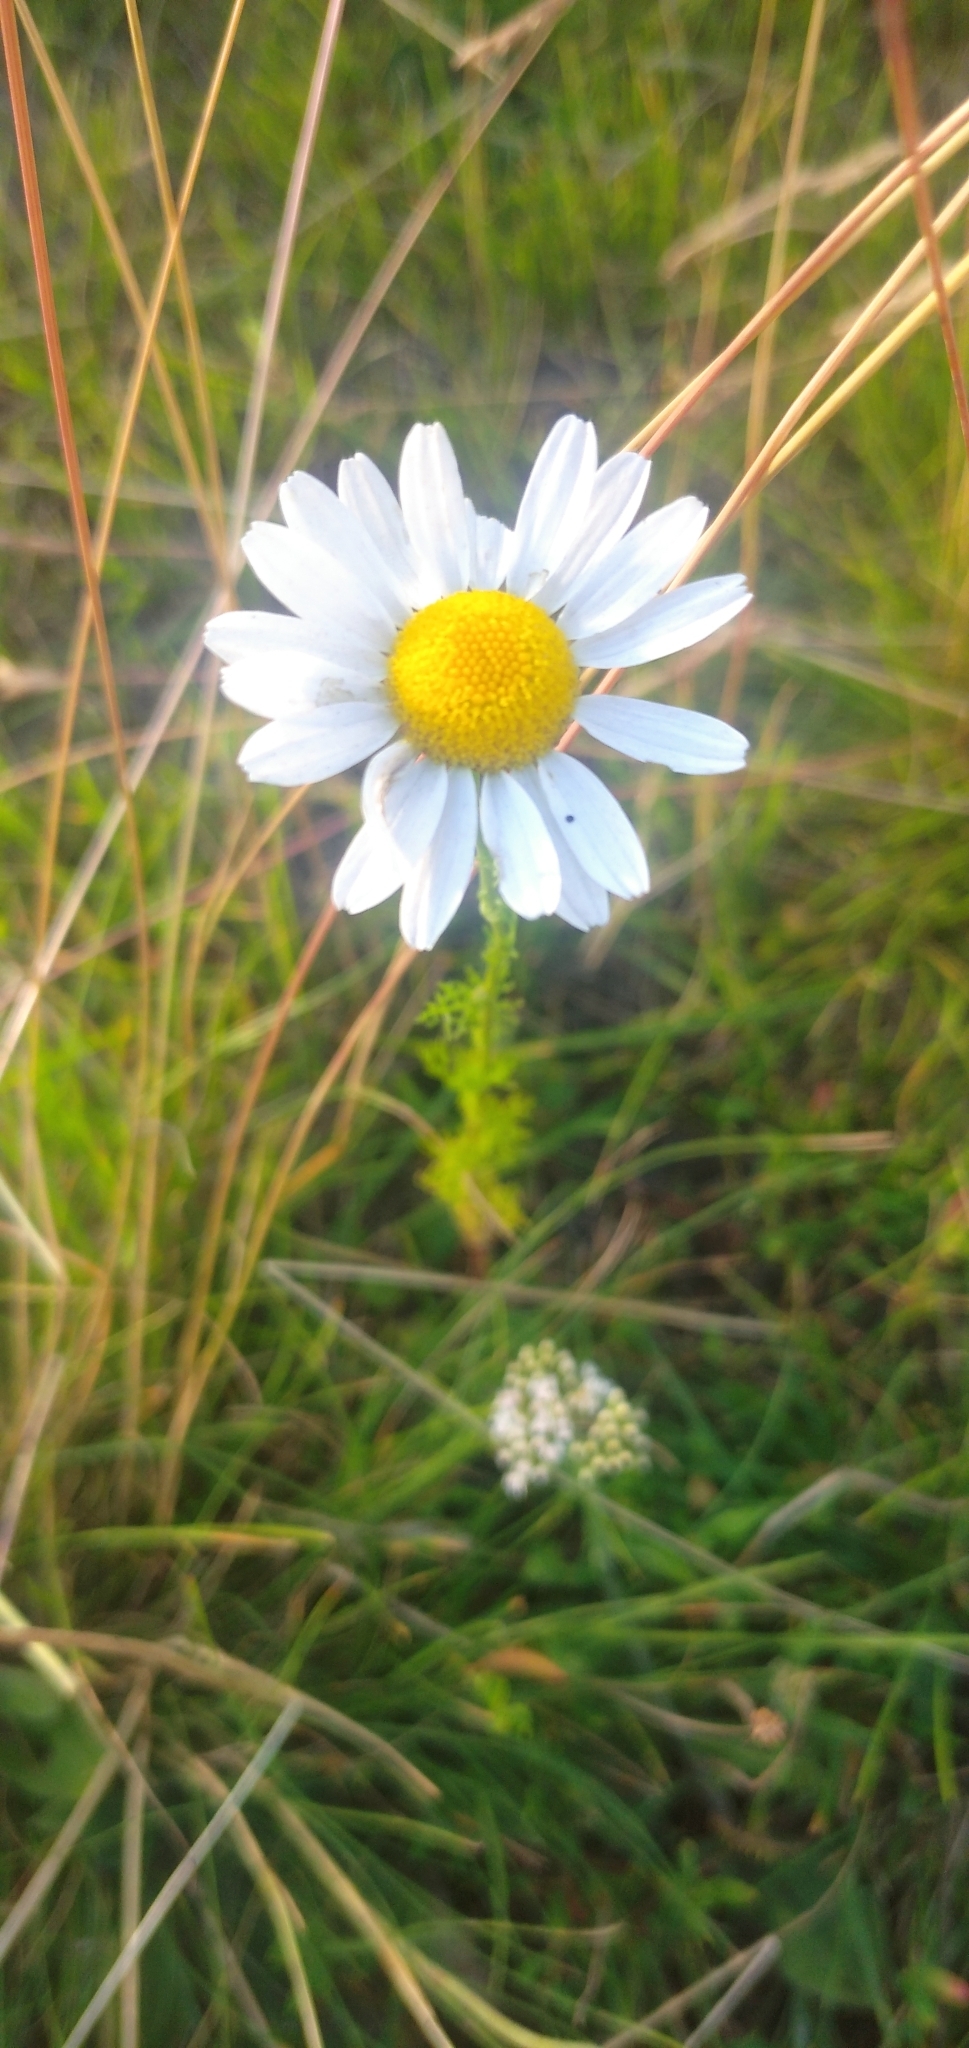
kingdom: Plantae
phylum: Tracheophyta
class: Magnoliopsida
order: Asterales
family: Asteraceae
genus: Tripleurospermum
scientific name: Tripleurospermum inodorum
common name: Scentless mayweed
